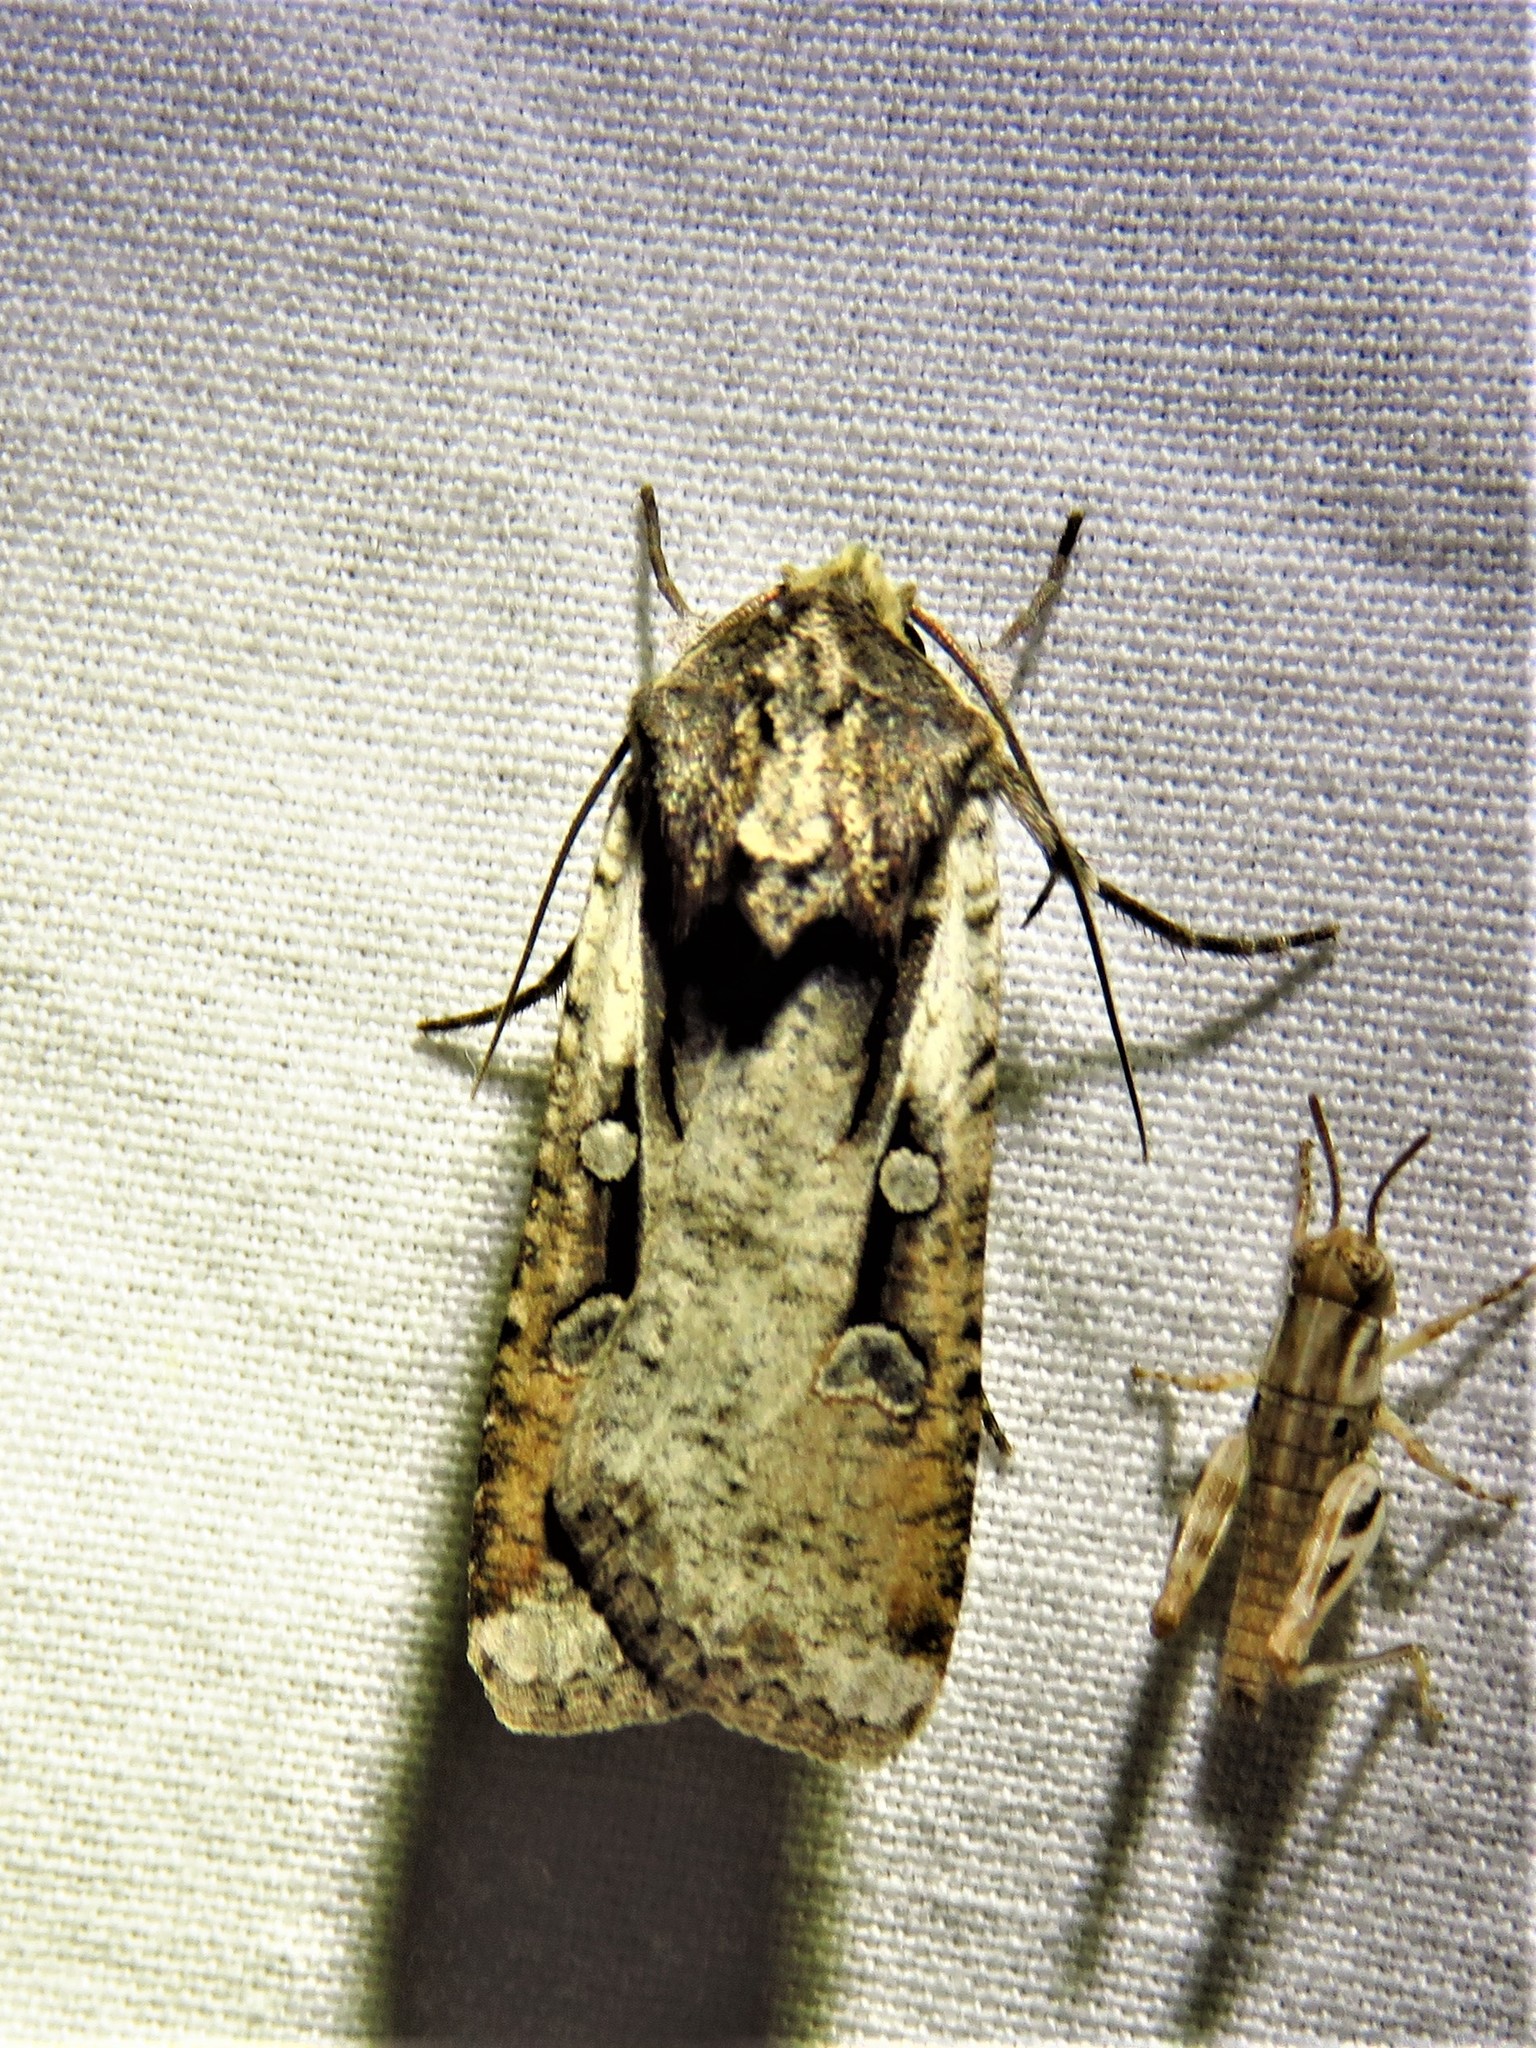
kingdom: Animalia
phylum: Arthropoda
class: Insecta
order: Lepidoptera
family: Noctuidae
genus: Hemieuxoa
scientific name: Hemieuxoa rudens
